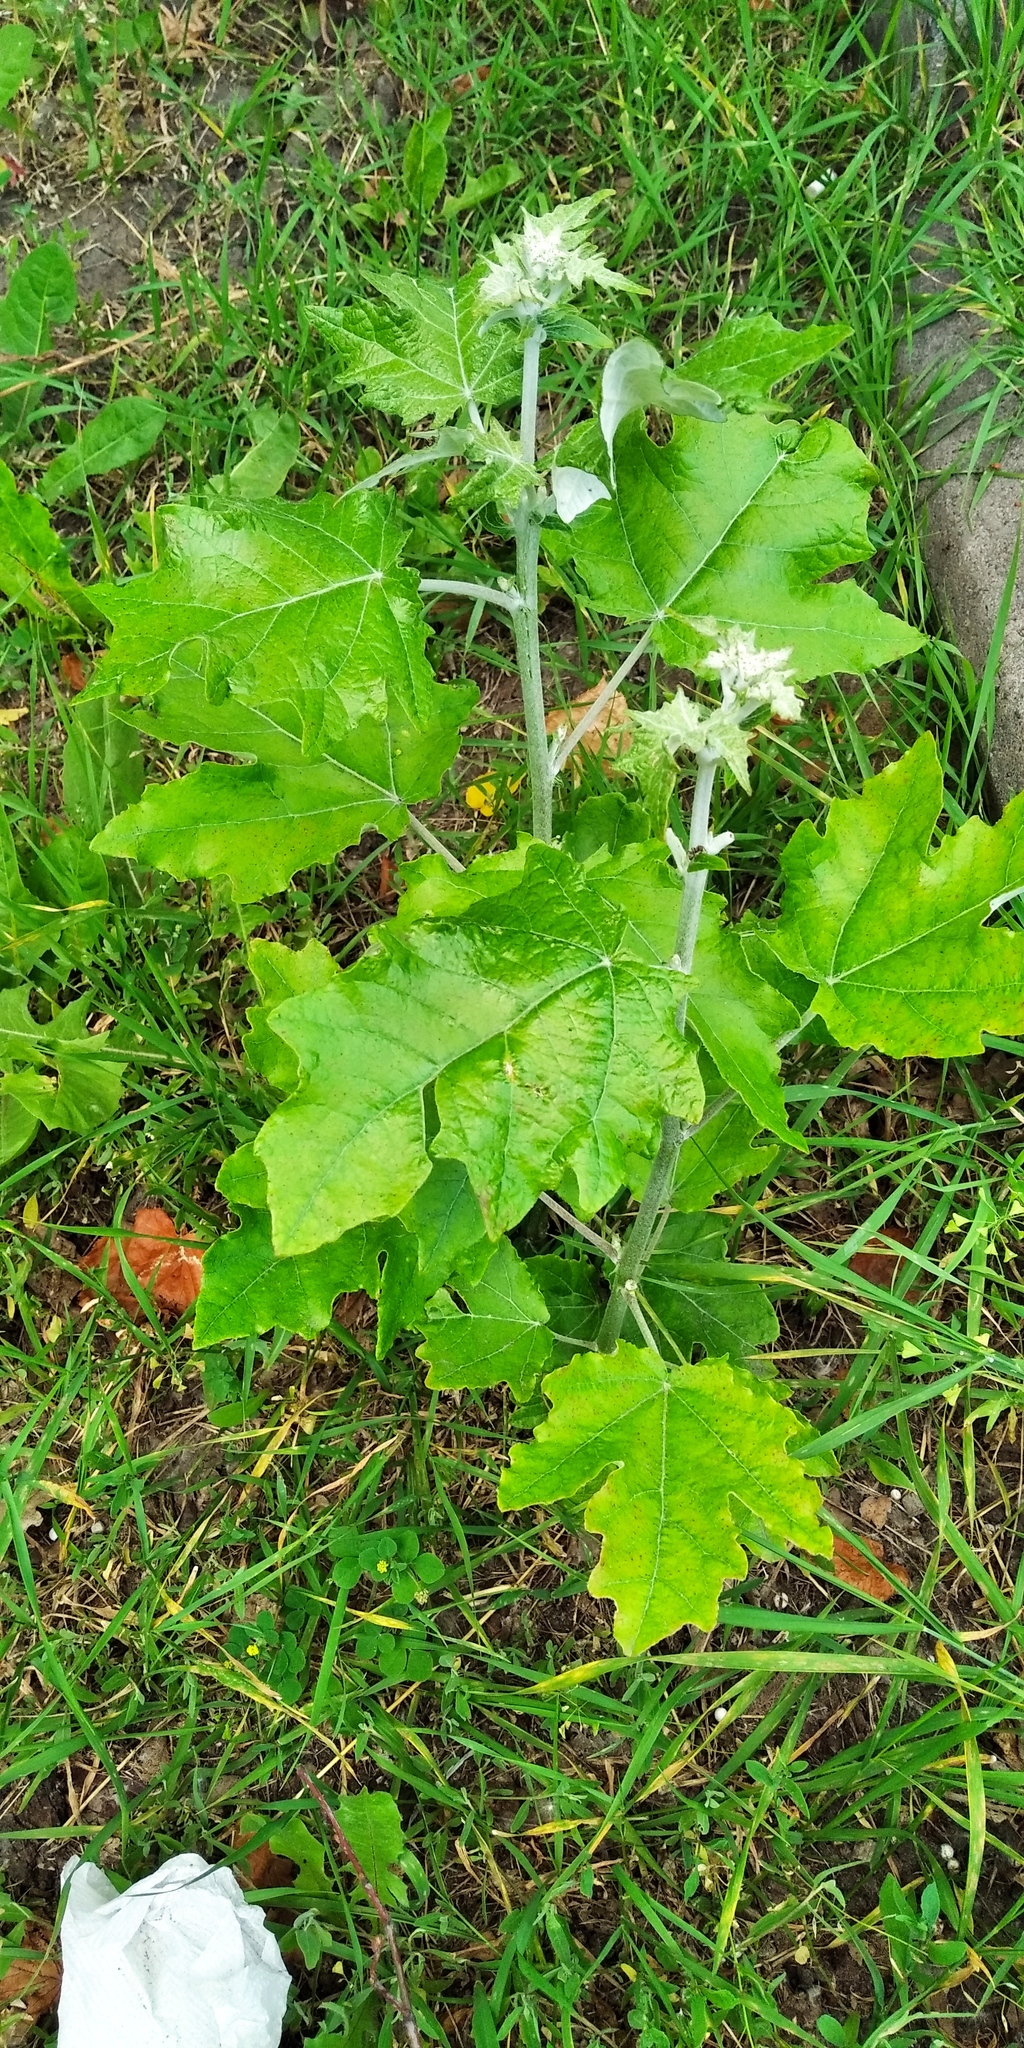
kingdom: Plantae
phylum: Tracheophyta
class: Magnoliopsida
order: Malpighiales
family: Salicaceae
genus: Populus
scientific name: Populus alba
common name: White poplar
